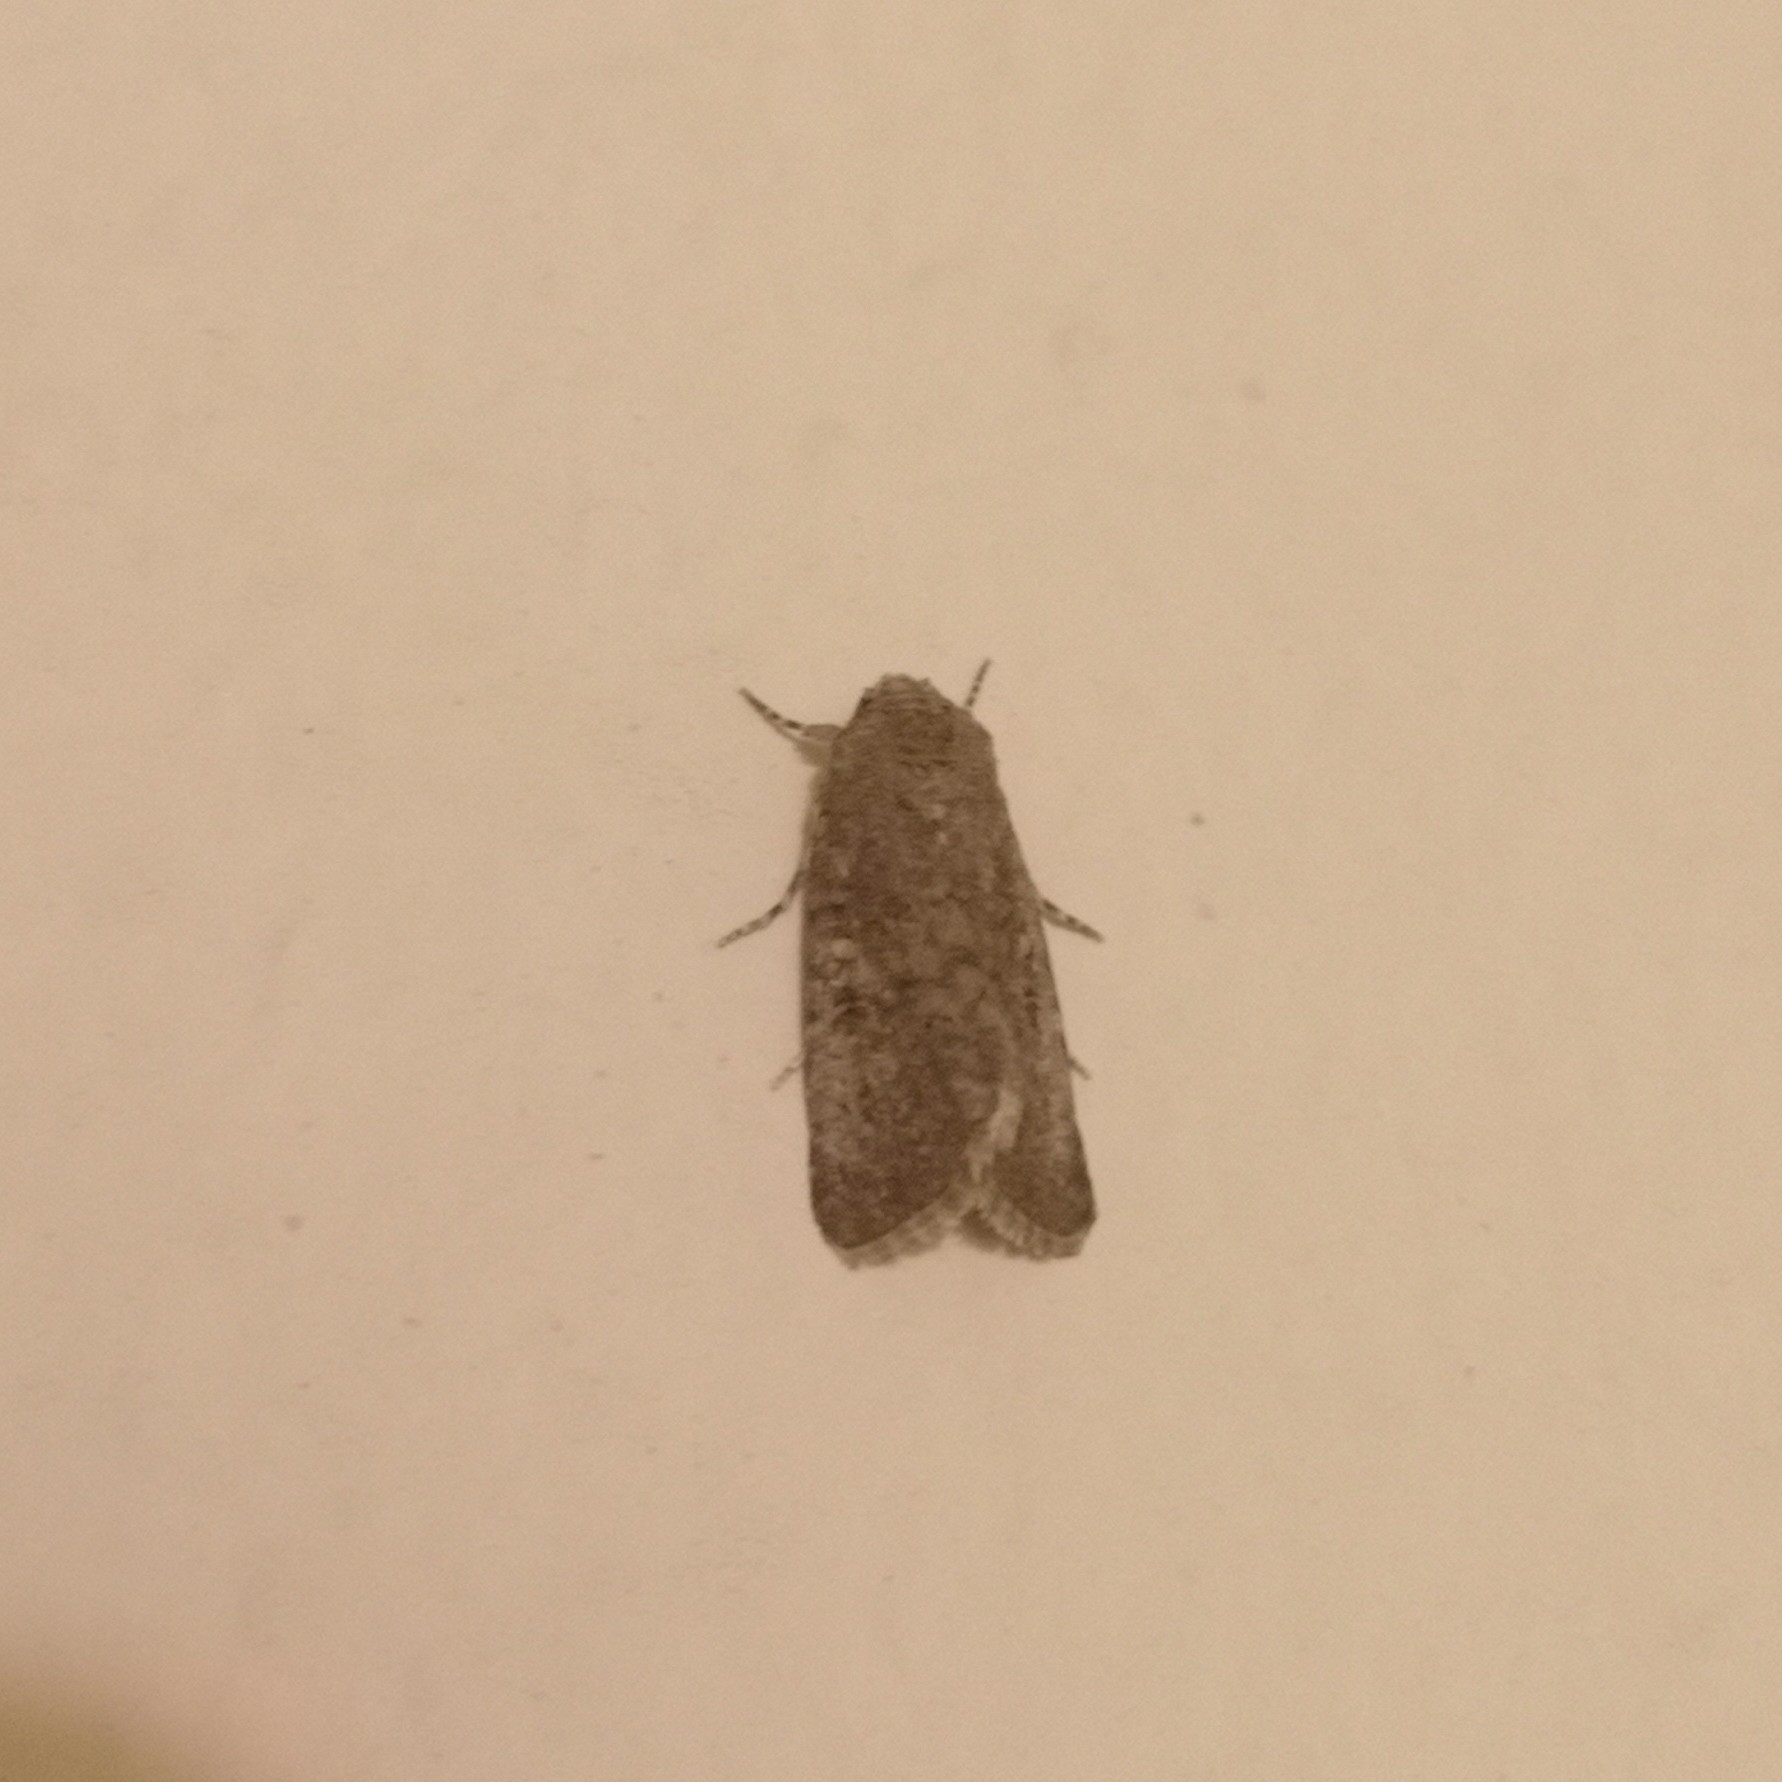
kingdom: Animalia
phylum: Arthropoda
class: Insecta
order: Lepidoptera
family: Noctuidae
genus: Spodoptera
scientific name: Spodoptera exigua
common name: Beet armyworm
